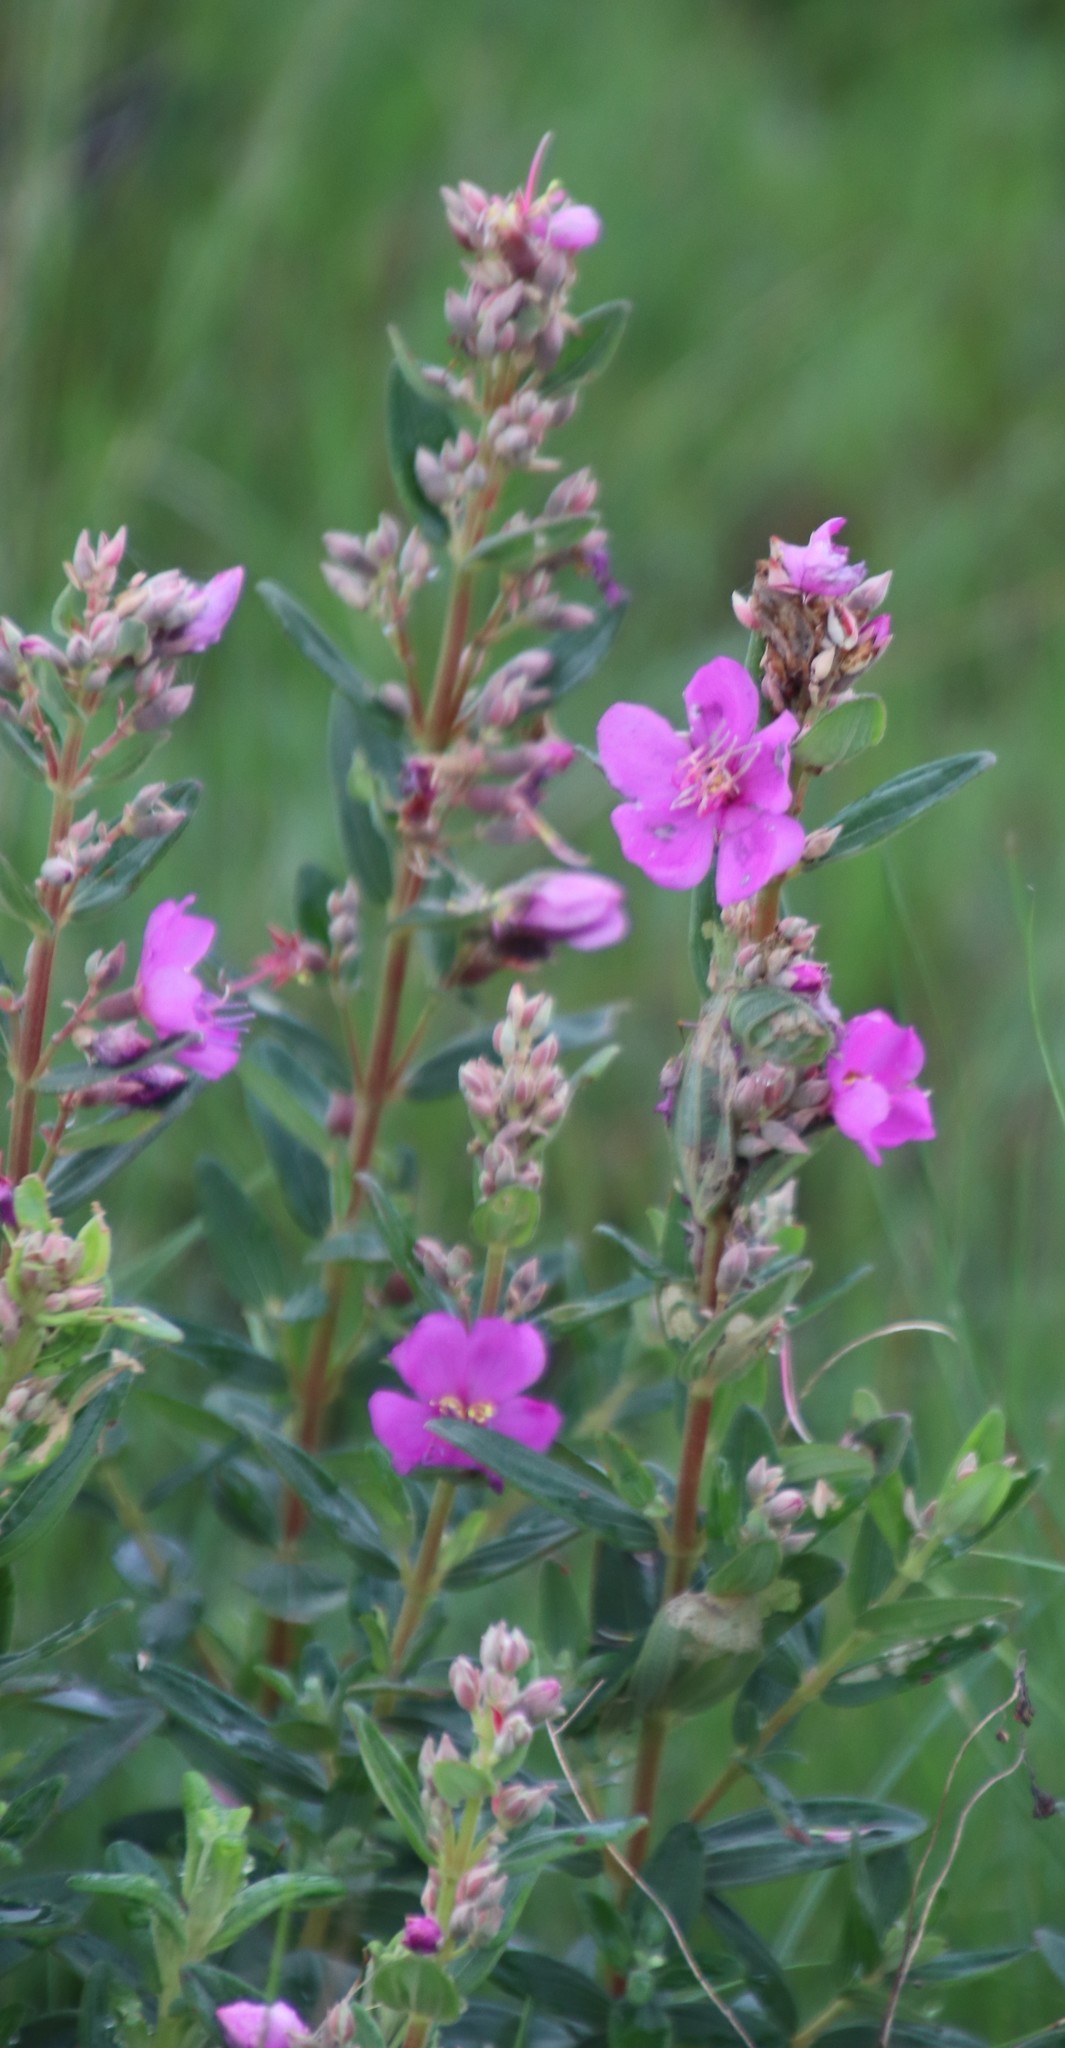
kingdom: Plantae
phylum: Tracheophyta
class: Magnoliopsida
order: Myrtales
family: Melastomataceae
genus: Argyrella
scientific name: Argyrella canescens
